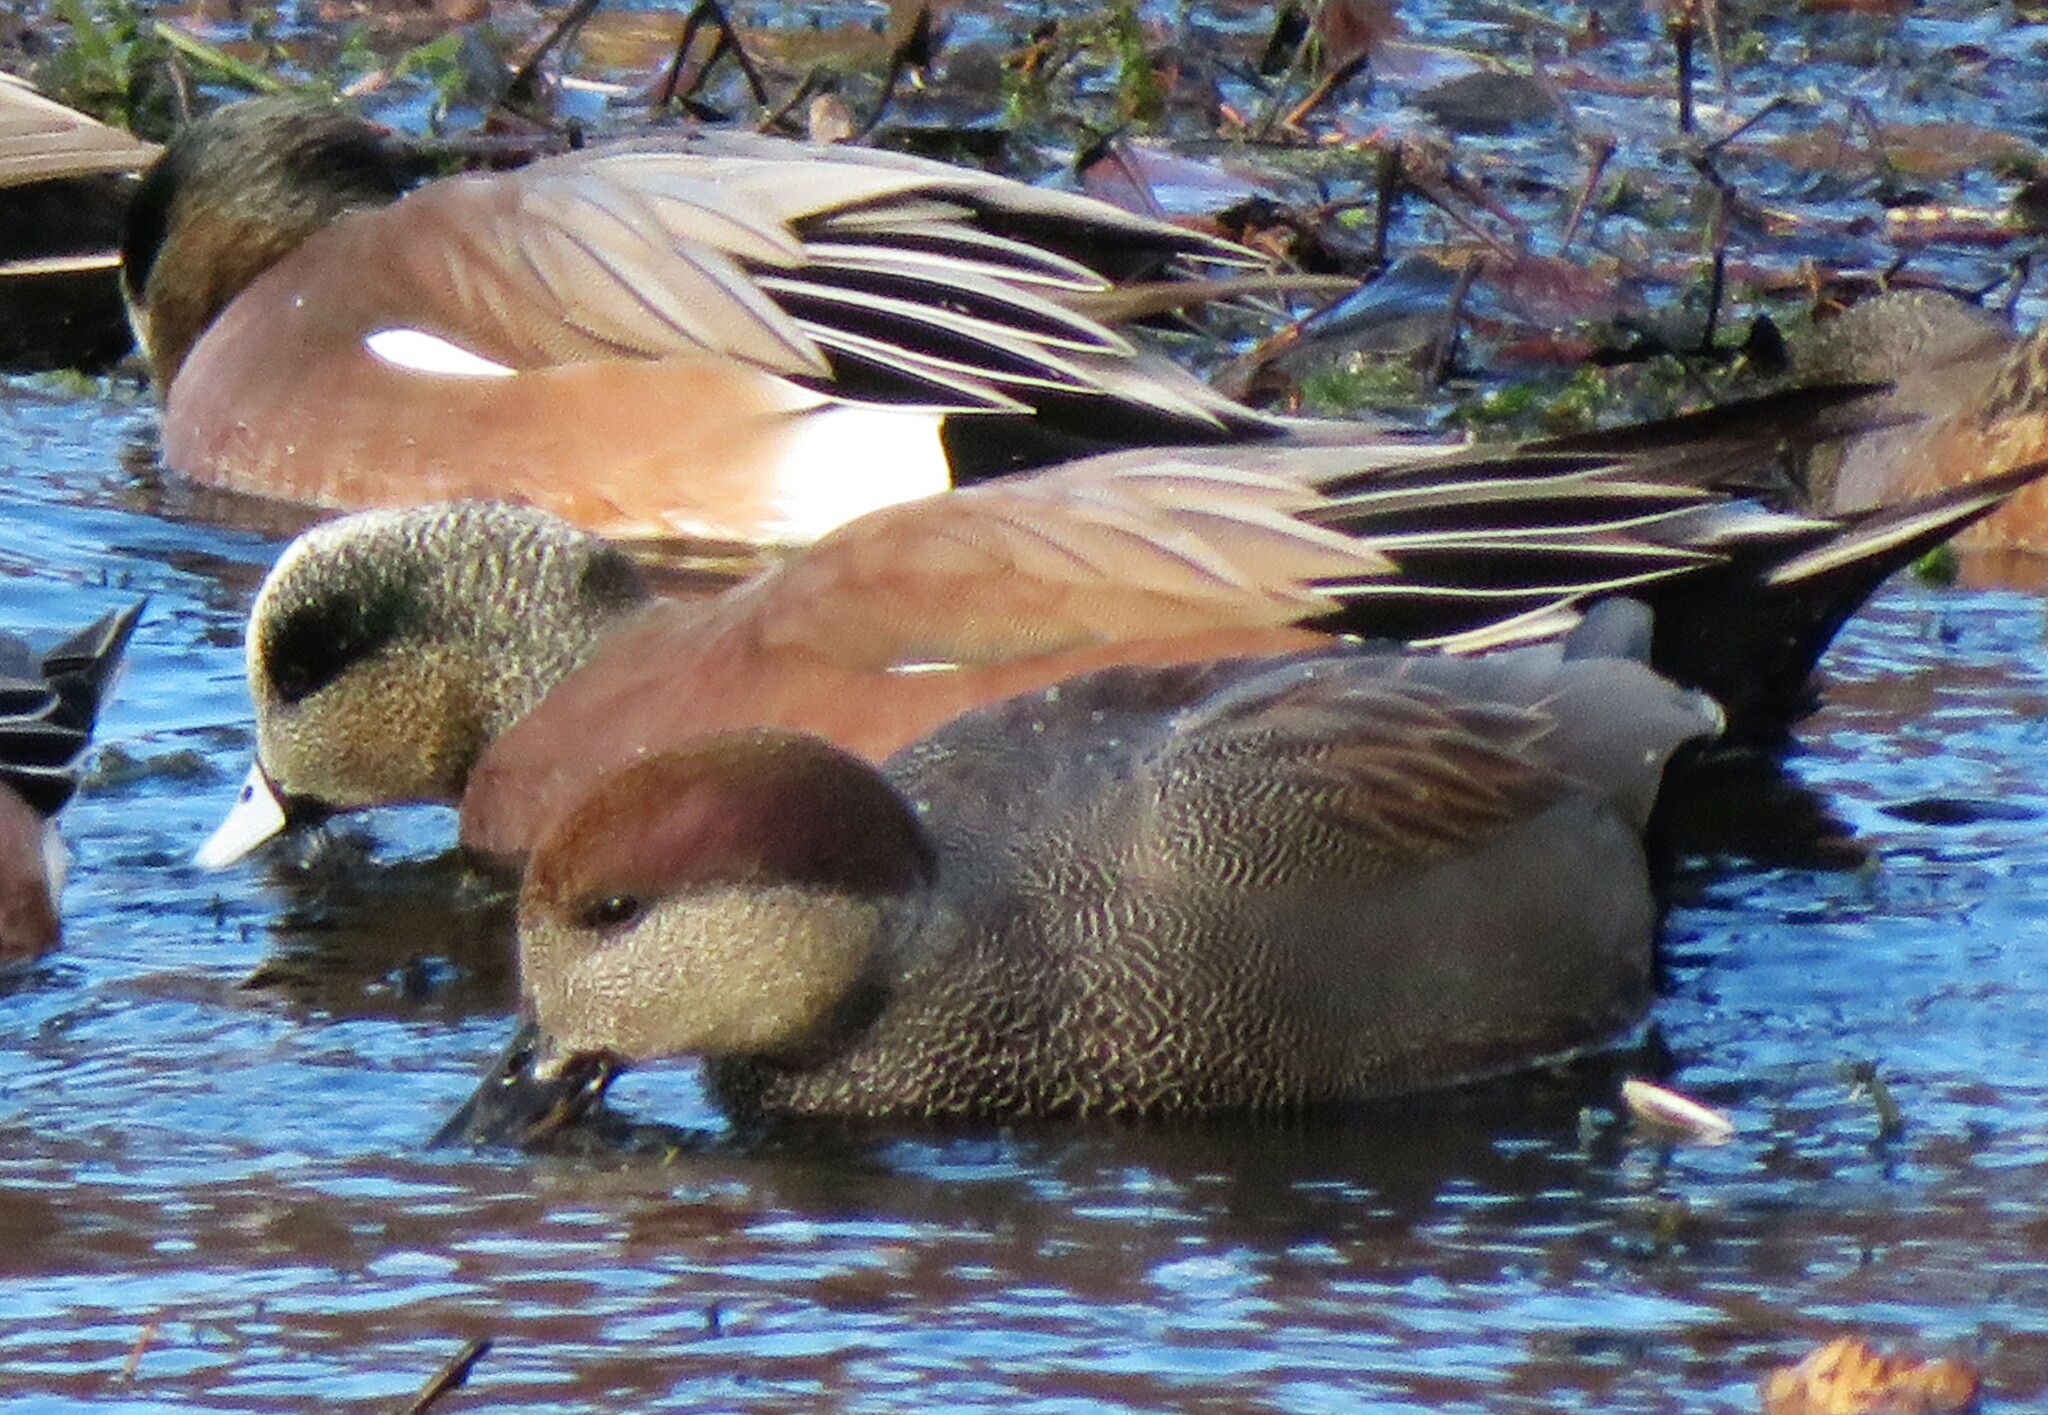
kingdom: Animalia
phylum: Chordata
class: Aves
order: Anseriformes
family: Anatidae
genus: Mareca
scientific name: Mareca strepera
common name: Gadwall
